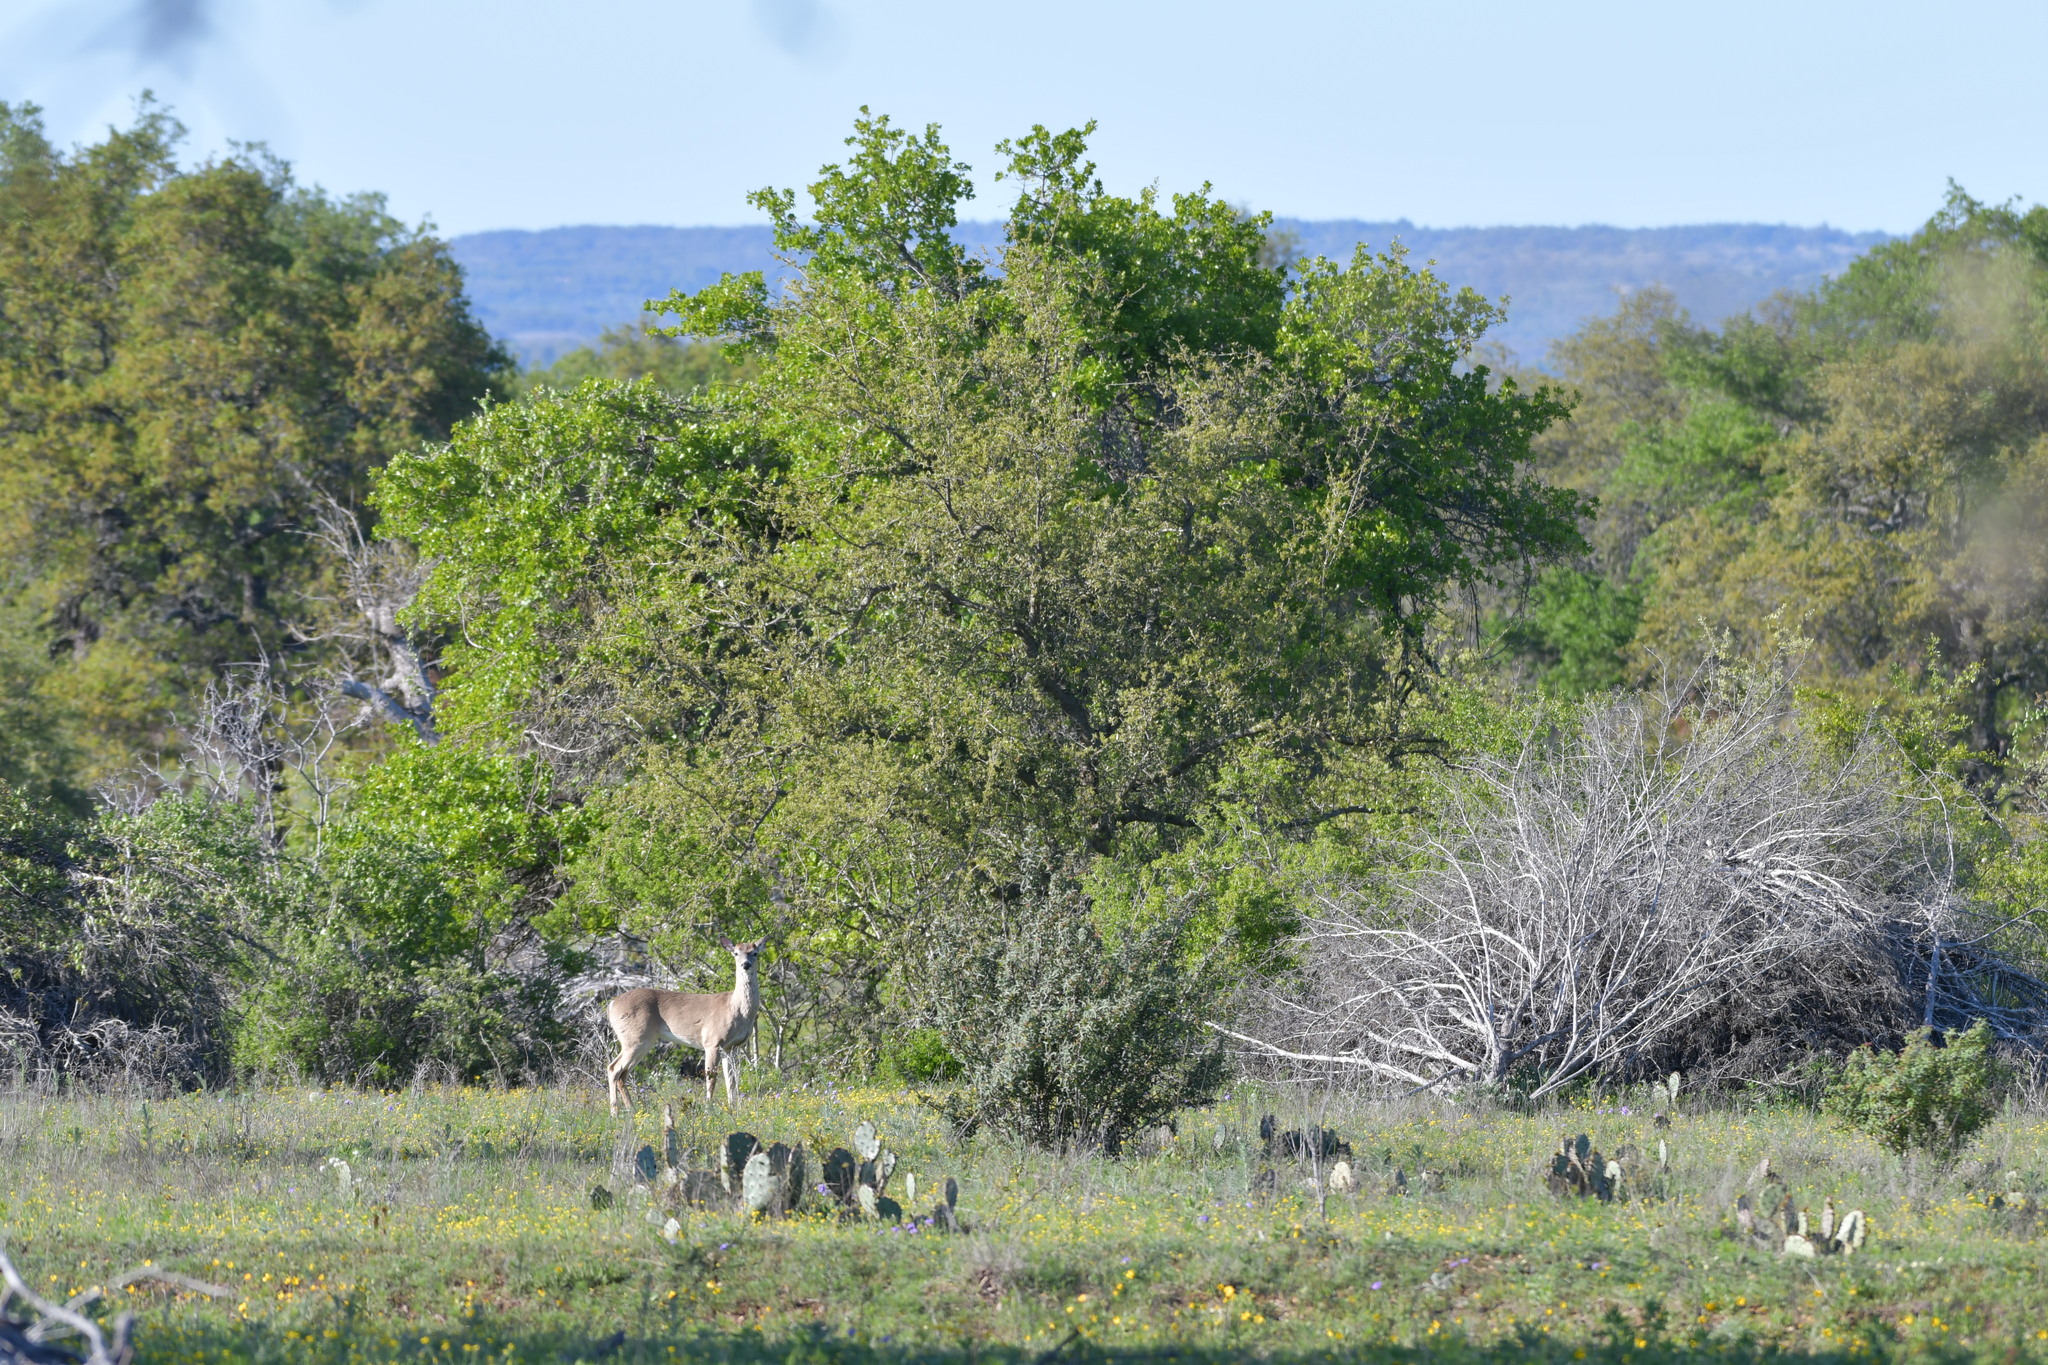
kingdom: Animalia
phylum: Chordata
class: Mammalia
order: Artiodactyla
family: Cervidae
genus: Odocoileus
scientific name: Odocoileus virginianus
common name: White-tailed deer
